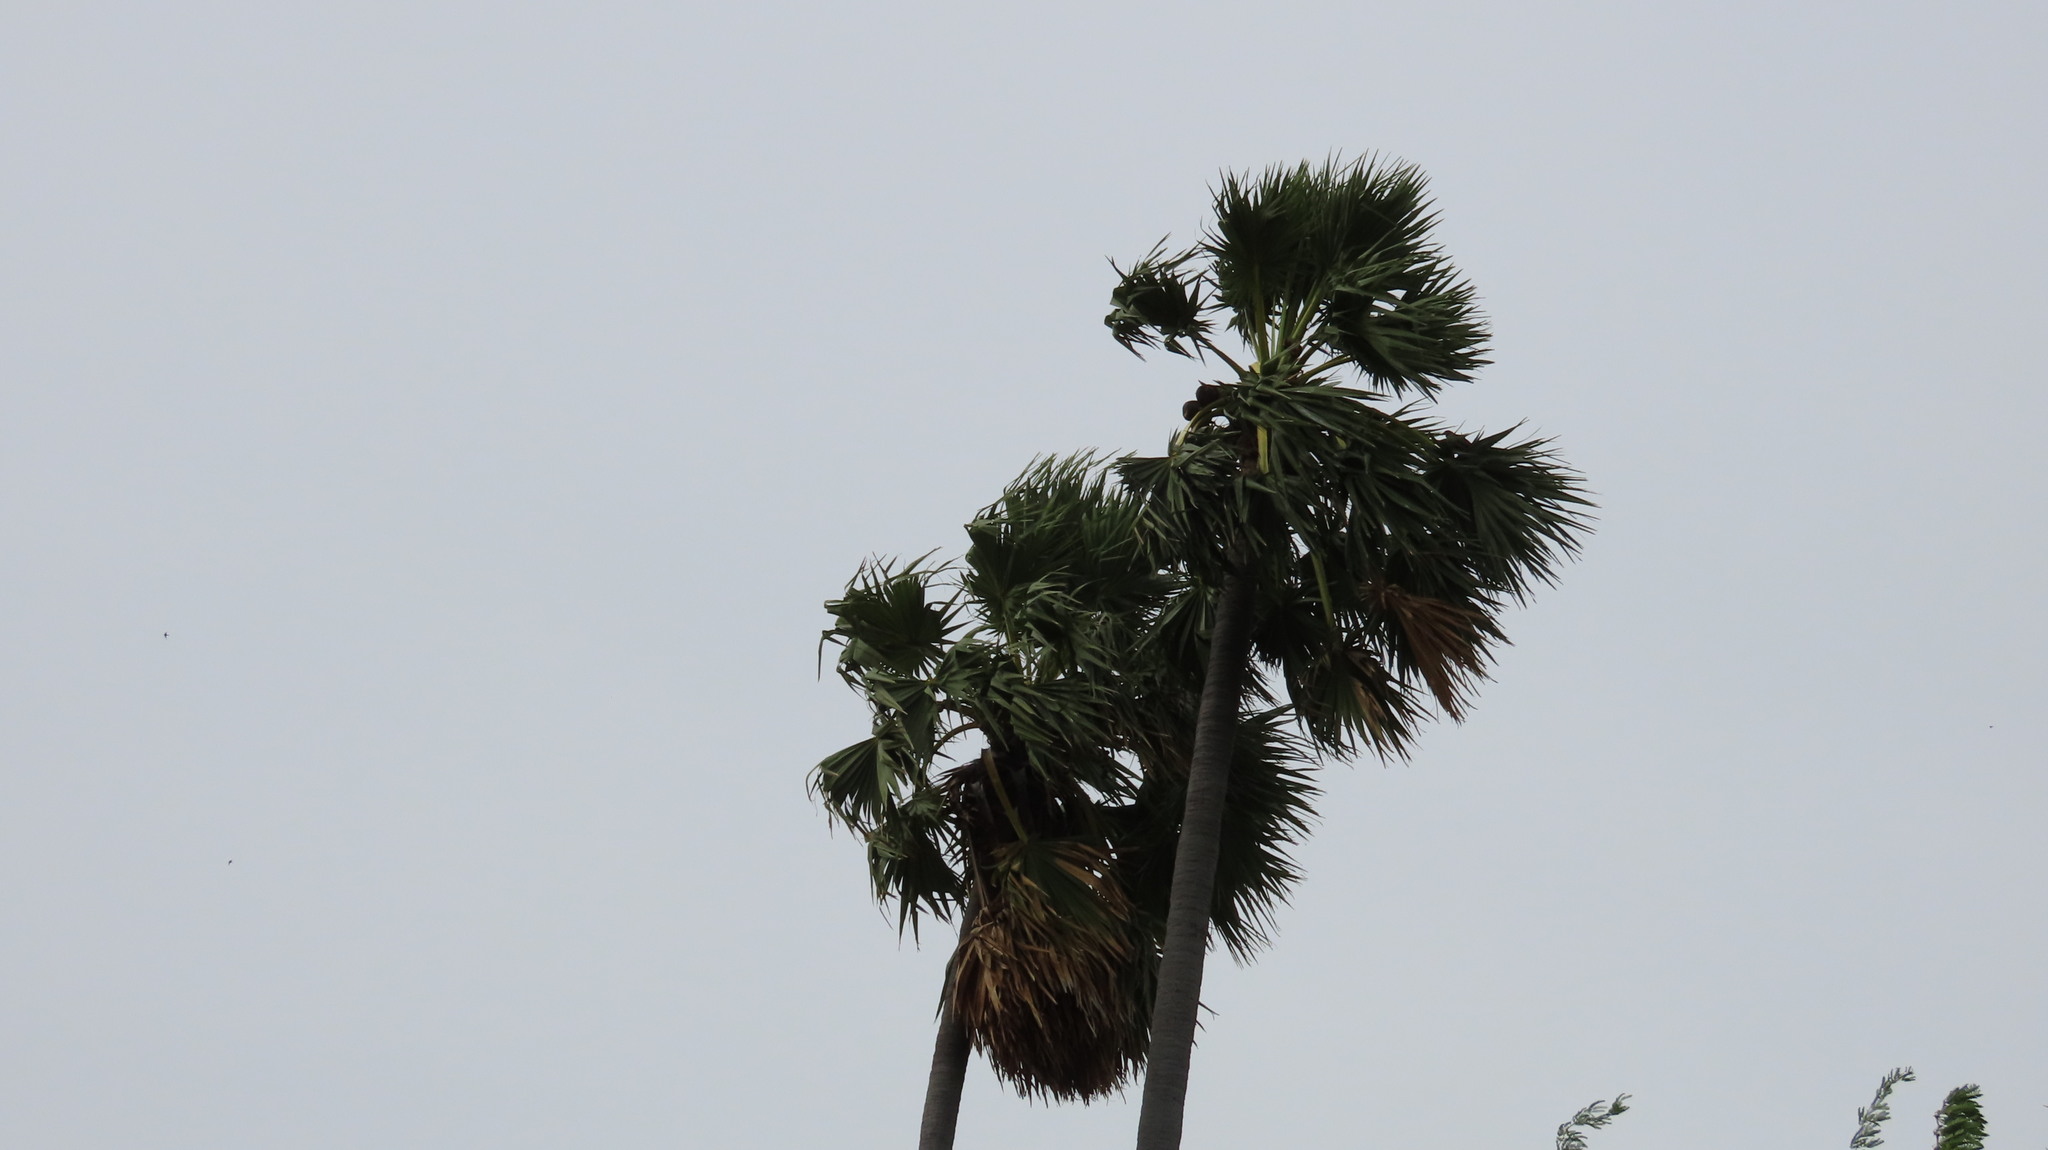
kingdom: Plantae
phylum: Tracheophyta
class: Liliopsida
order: Arecales
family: Arecaceae
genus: Borassus
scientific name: Borassus flabellifer
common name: Palmyra palm
